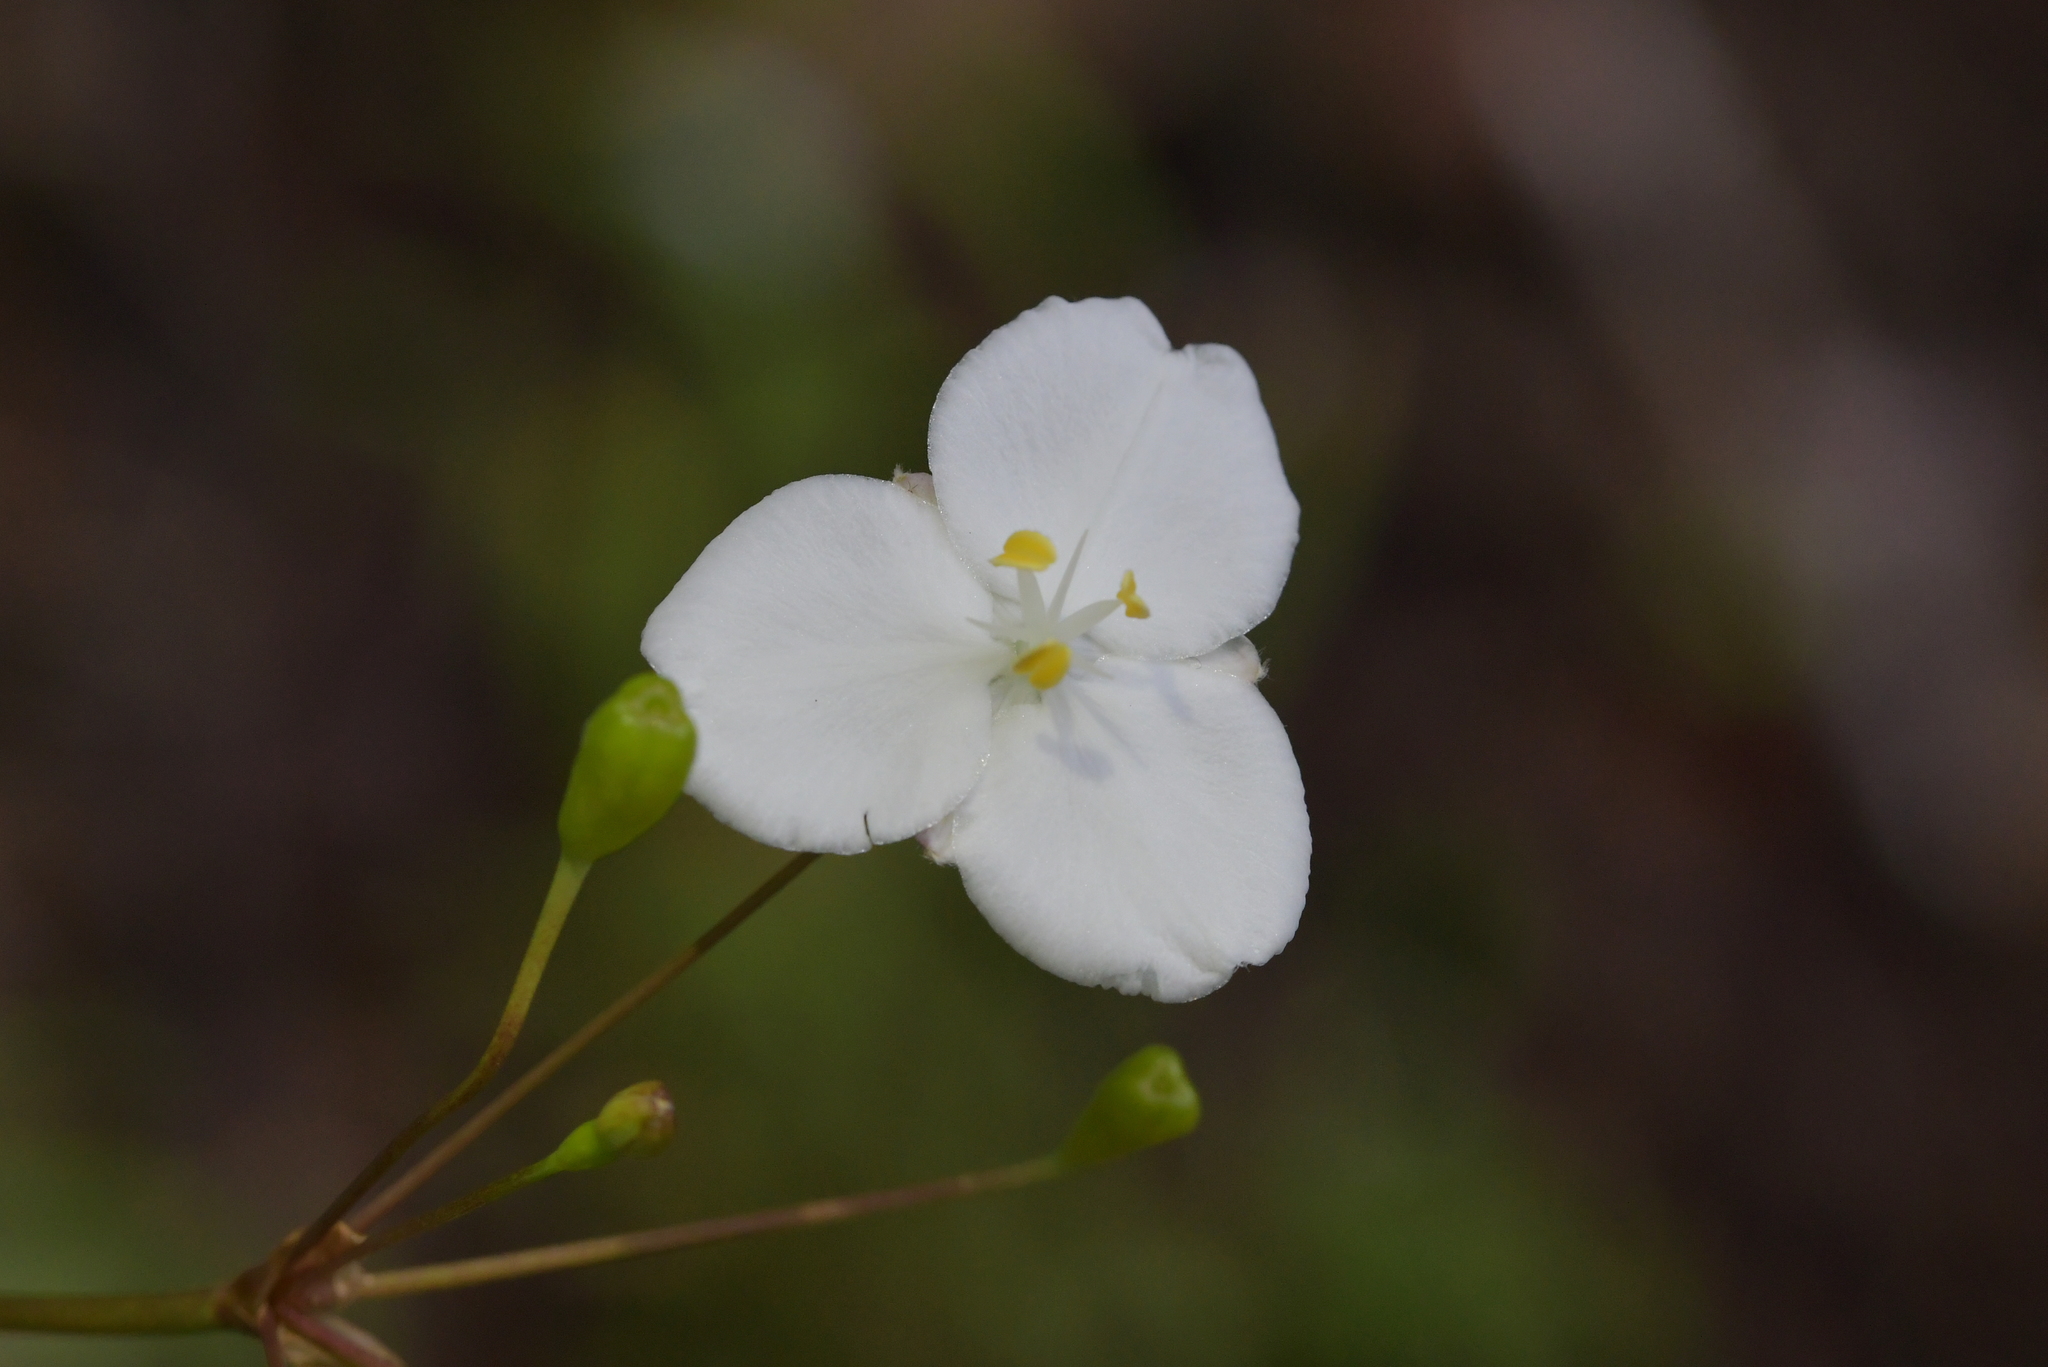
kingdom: Plantae
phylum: Tracheophyta
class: Liliopsida
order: Asparagales
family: Iridaceae
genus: Libertia
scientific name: Libertia grandiflora
